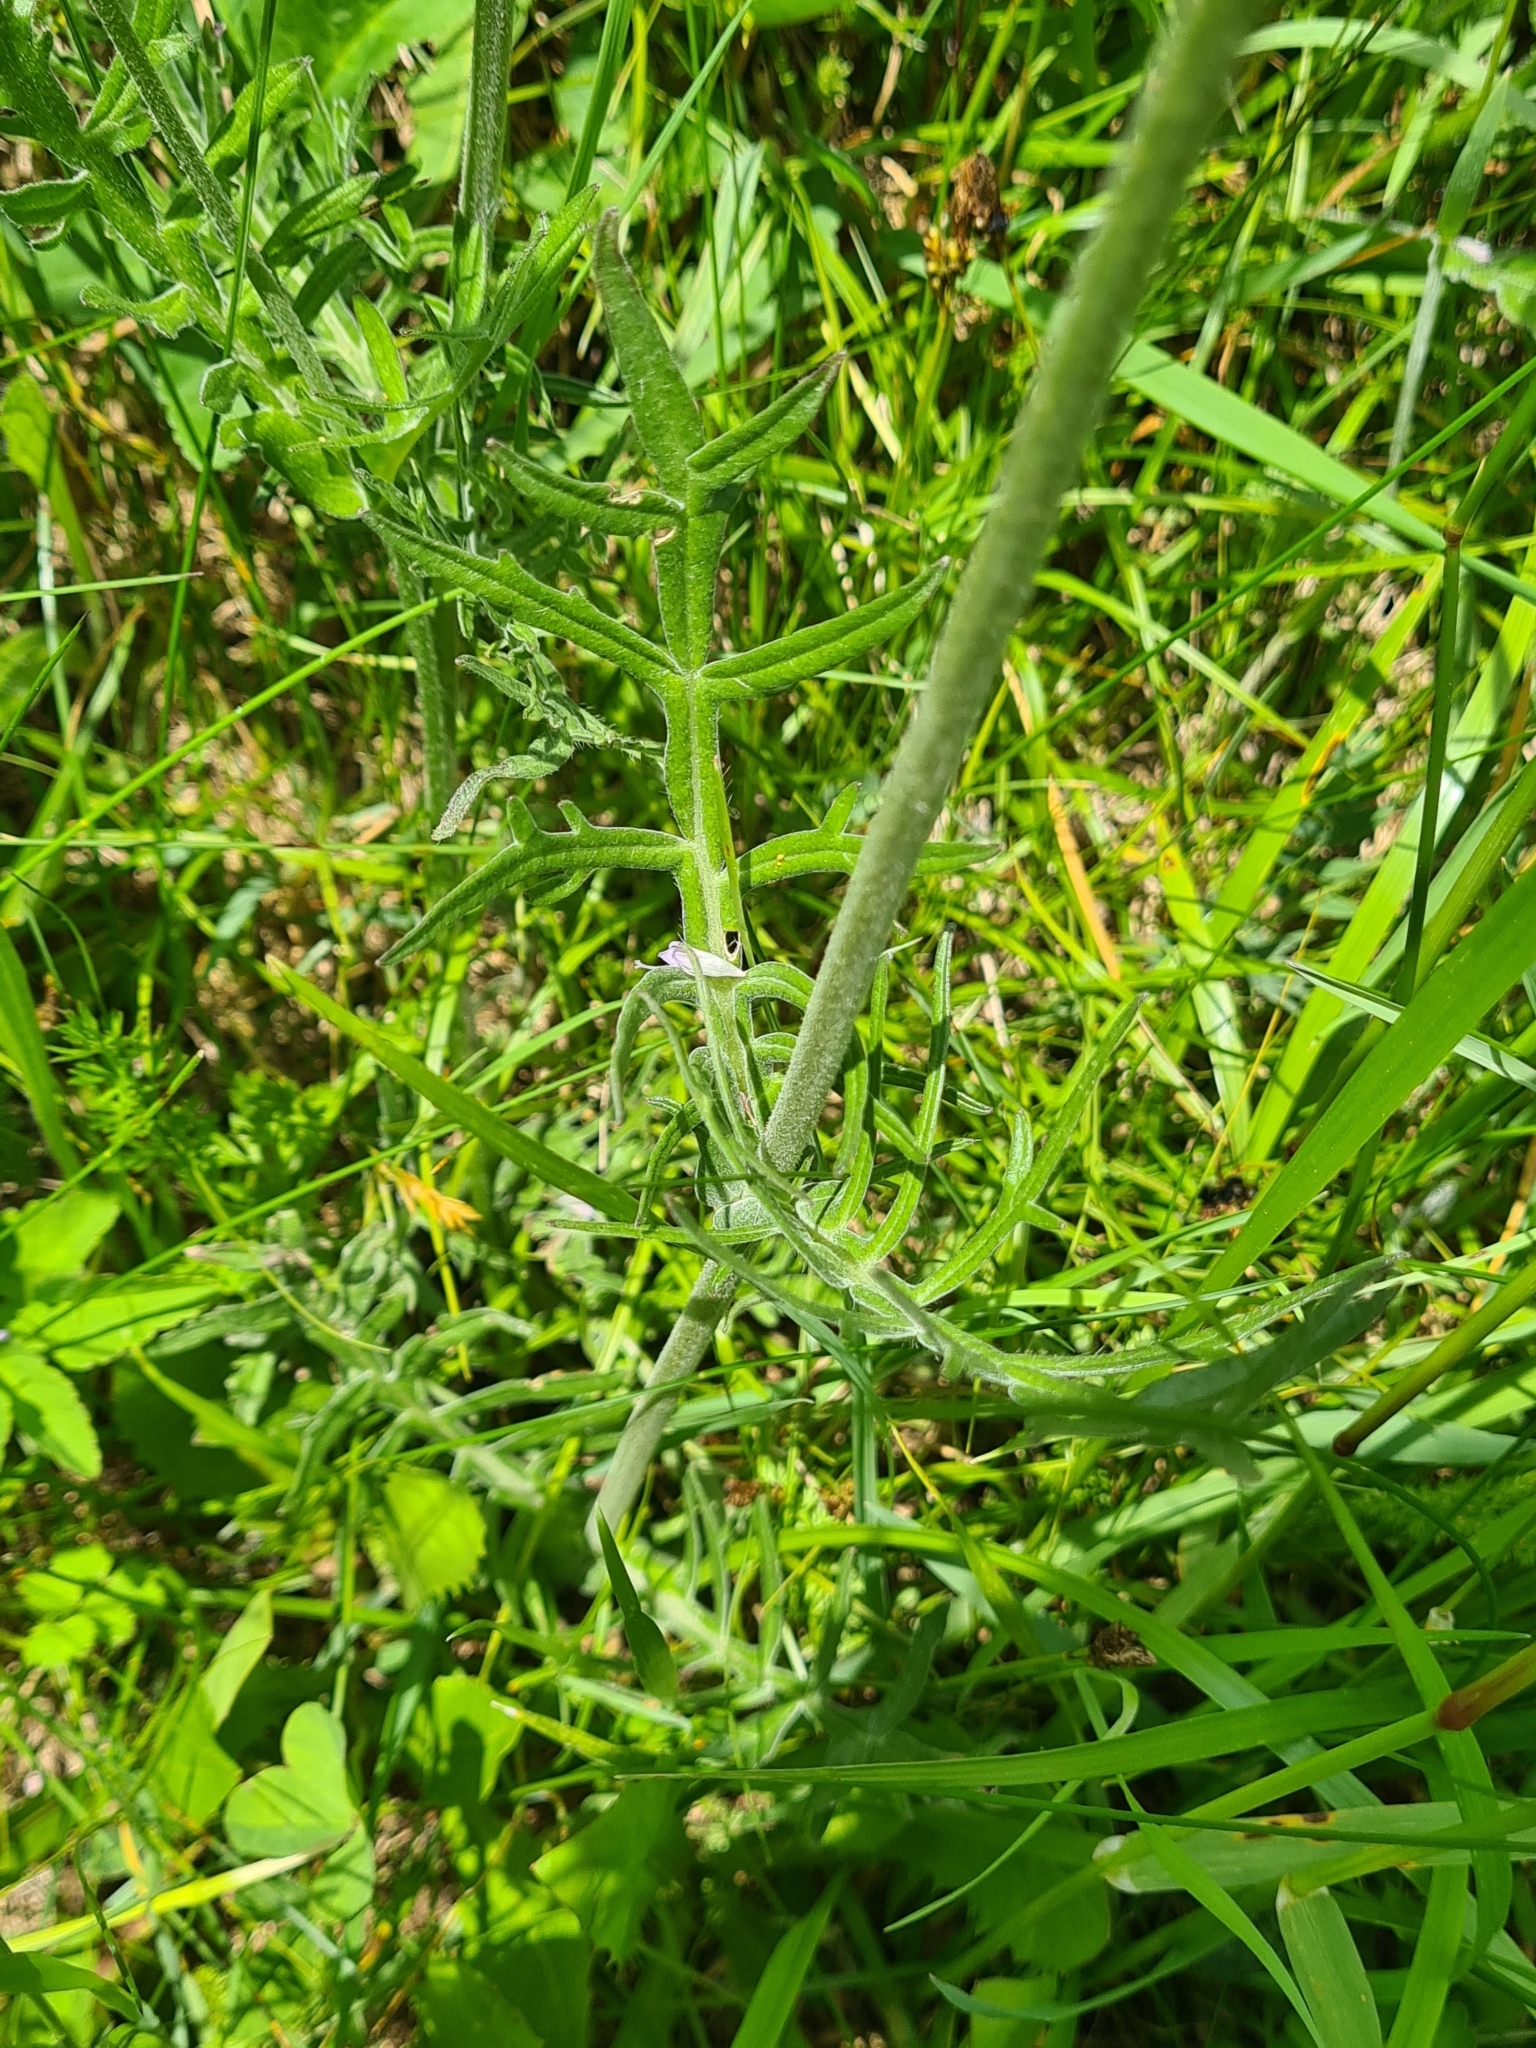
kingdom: Plantae
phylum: Tracheophyta
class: Magnoliopsida
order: Dipsacales
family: Caprifoliaceae
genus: Knautia
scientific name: Knautia arvensis
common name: Field scabiosa
